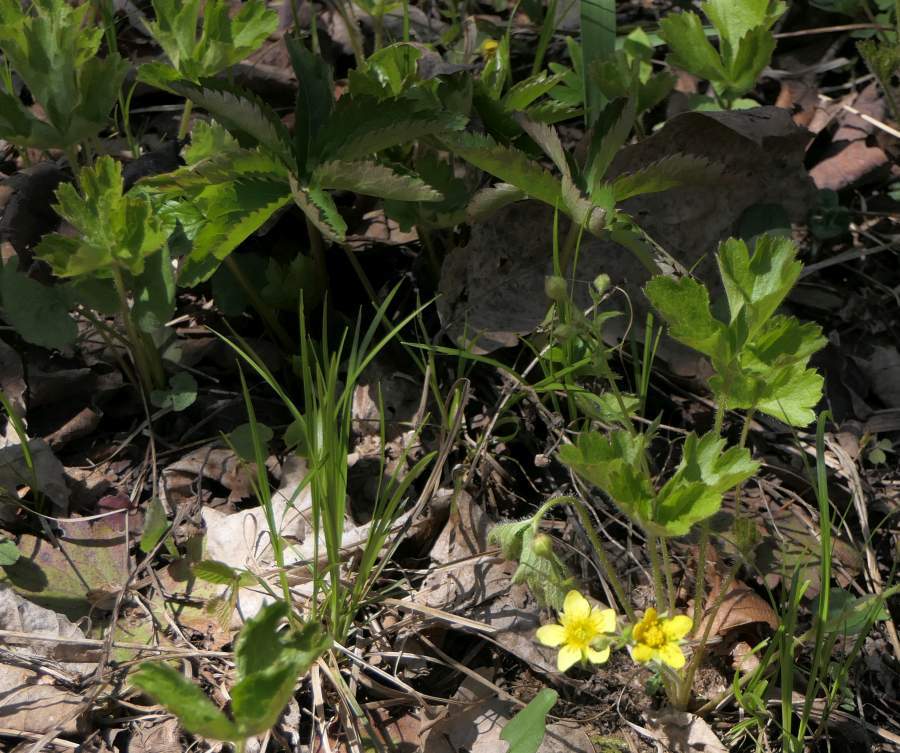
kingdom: Plantae
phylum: Tracheophyta
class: Magnoliopsida
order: Rosales
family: Rosaceae
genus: Geum
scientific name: Geum fragarioides
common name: Appalachian barren strawberry
